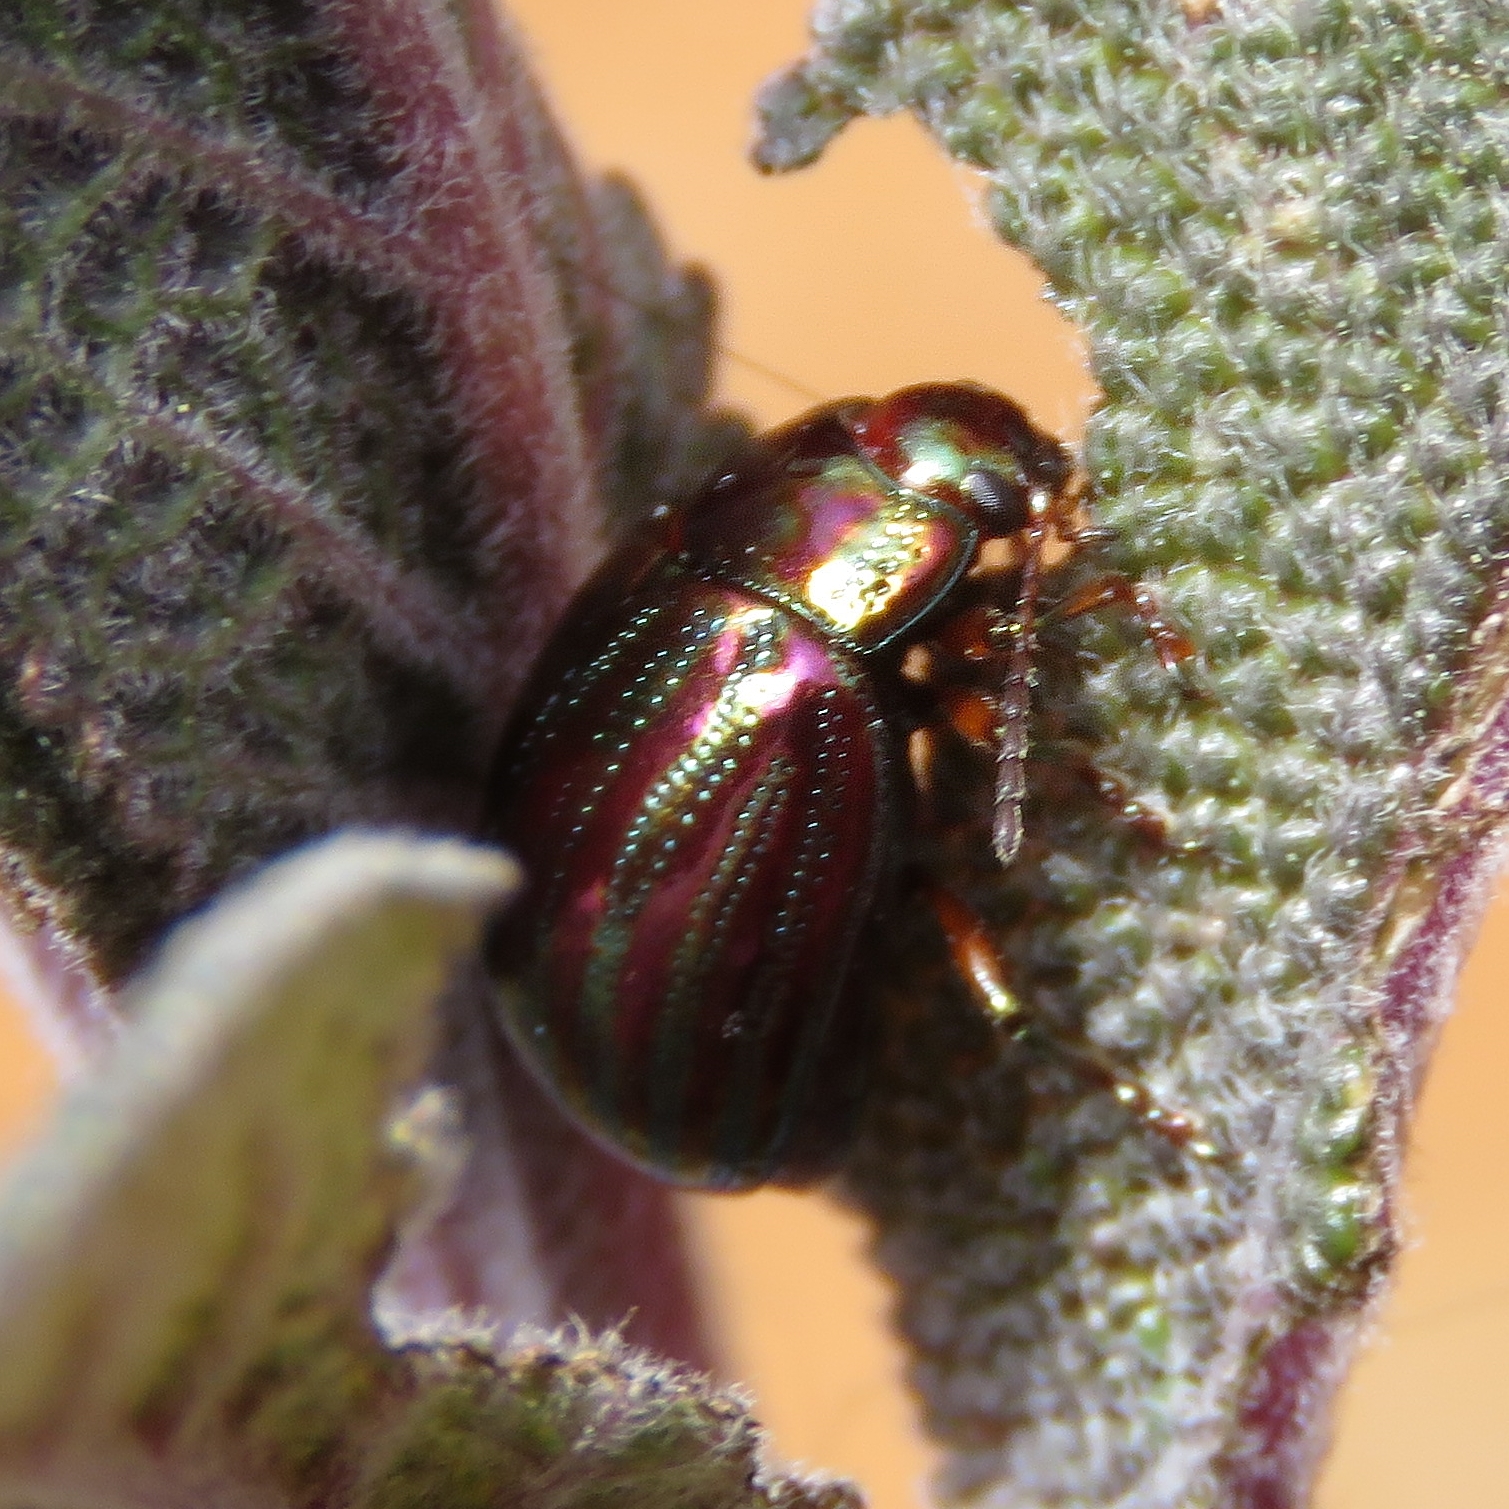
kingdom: Animalia
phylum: Arthropoda
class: Insecta
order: Coleoptera
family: Chrysomelidae
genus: Chrysolina
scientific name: Chrysolina americana
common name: Rosemary beetle
